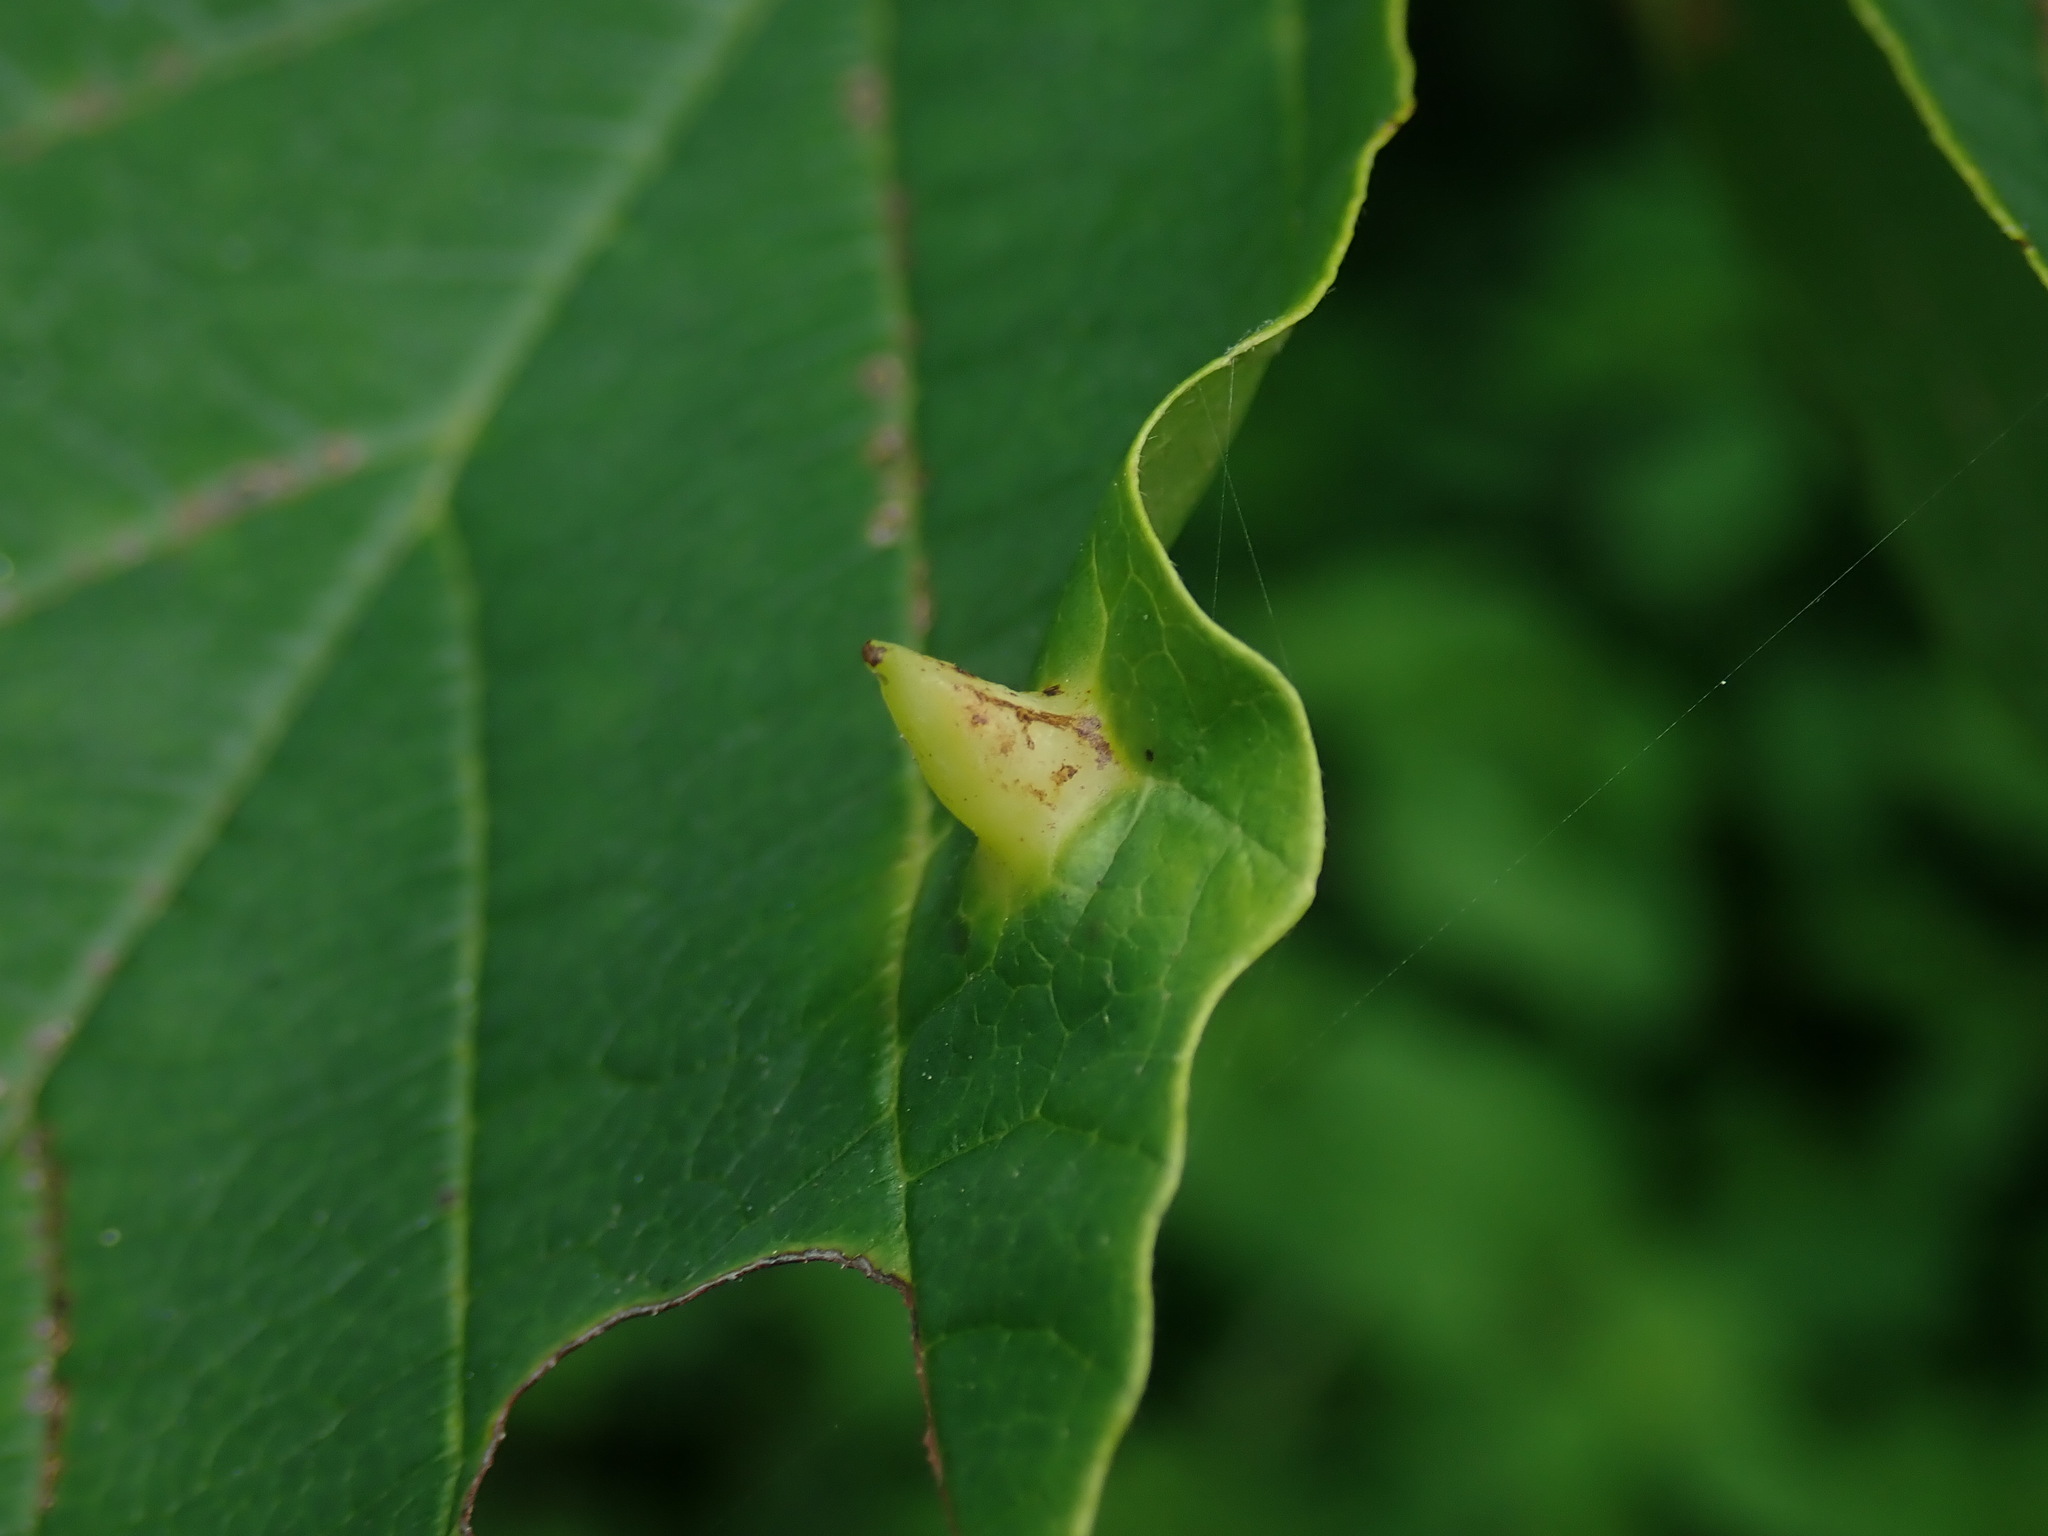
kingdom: Animalia
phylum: Arthropoda
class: Insecta
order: Hemiptera
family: Aphididae
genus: Hormaphis
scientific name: Hormaphis hamamelidis
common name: Witch-hazel cone gall aphid
